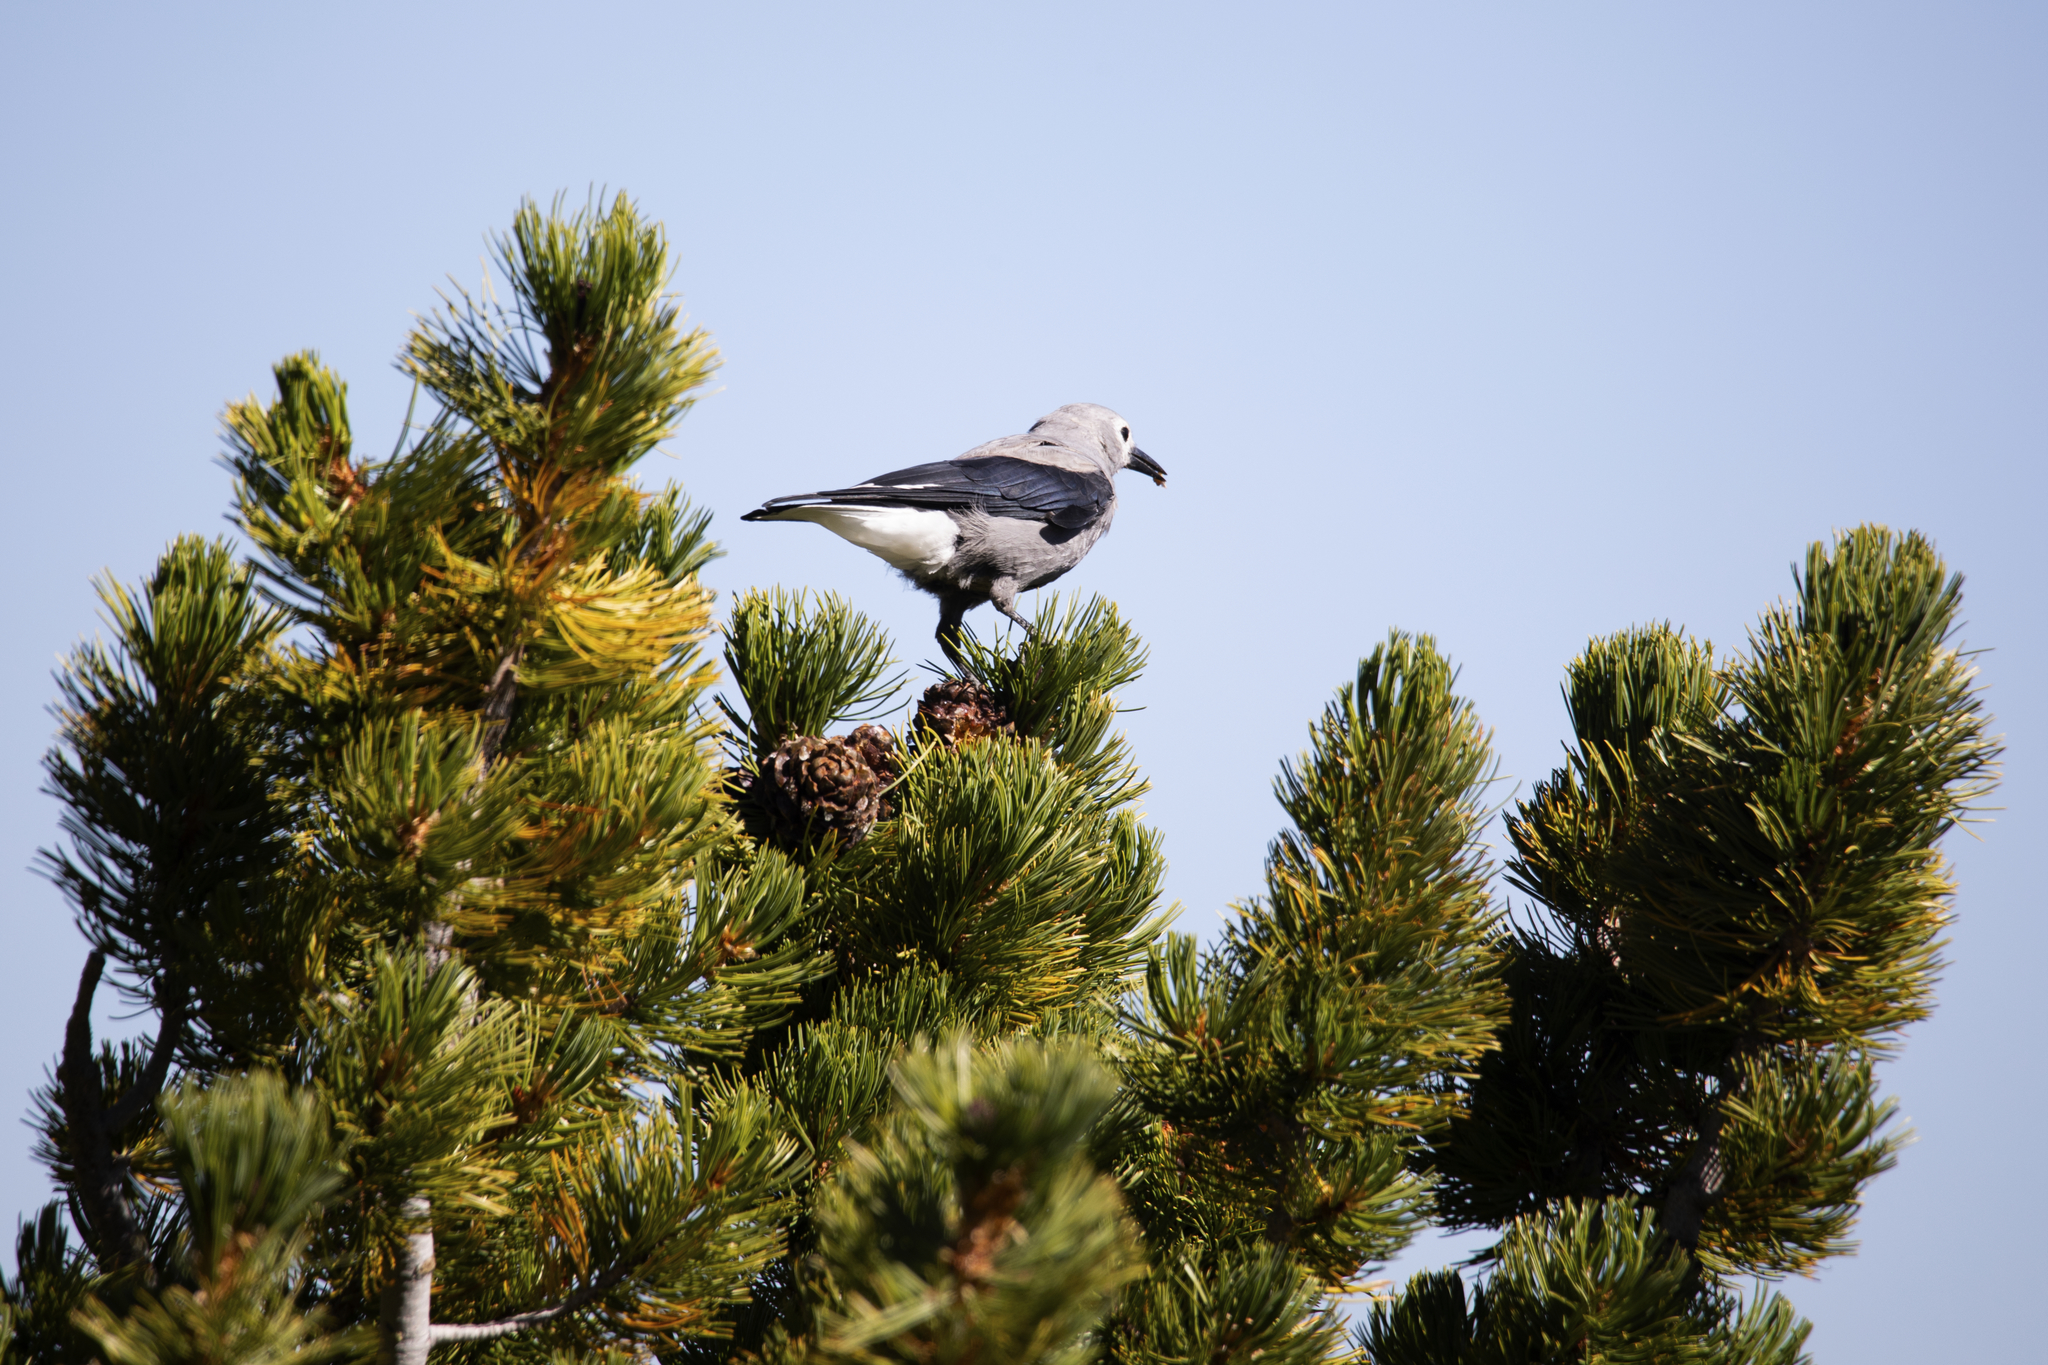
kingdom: Animalia
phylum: Chordata
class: Aves
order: Passeriformes
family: Corvidae
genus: Nucifraga
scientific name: Nucifraga columbiana
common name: Clark's nutcracker
